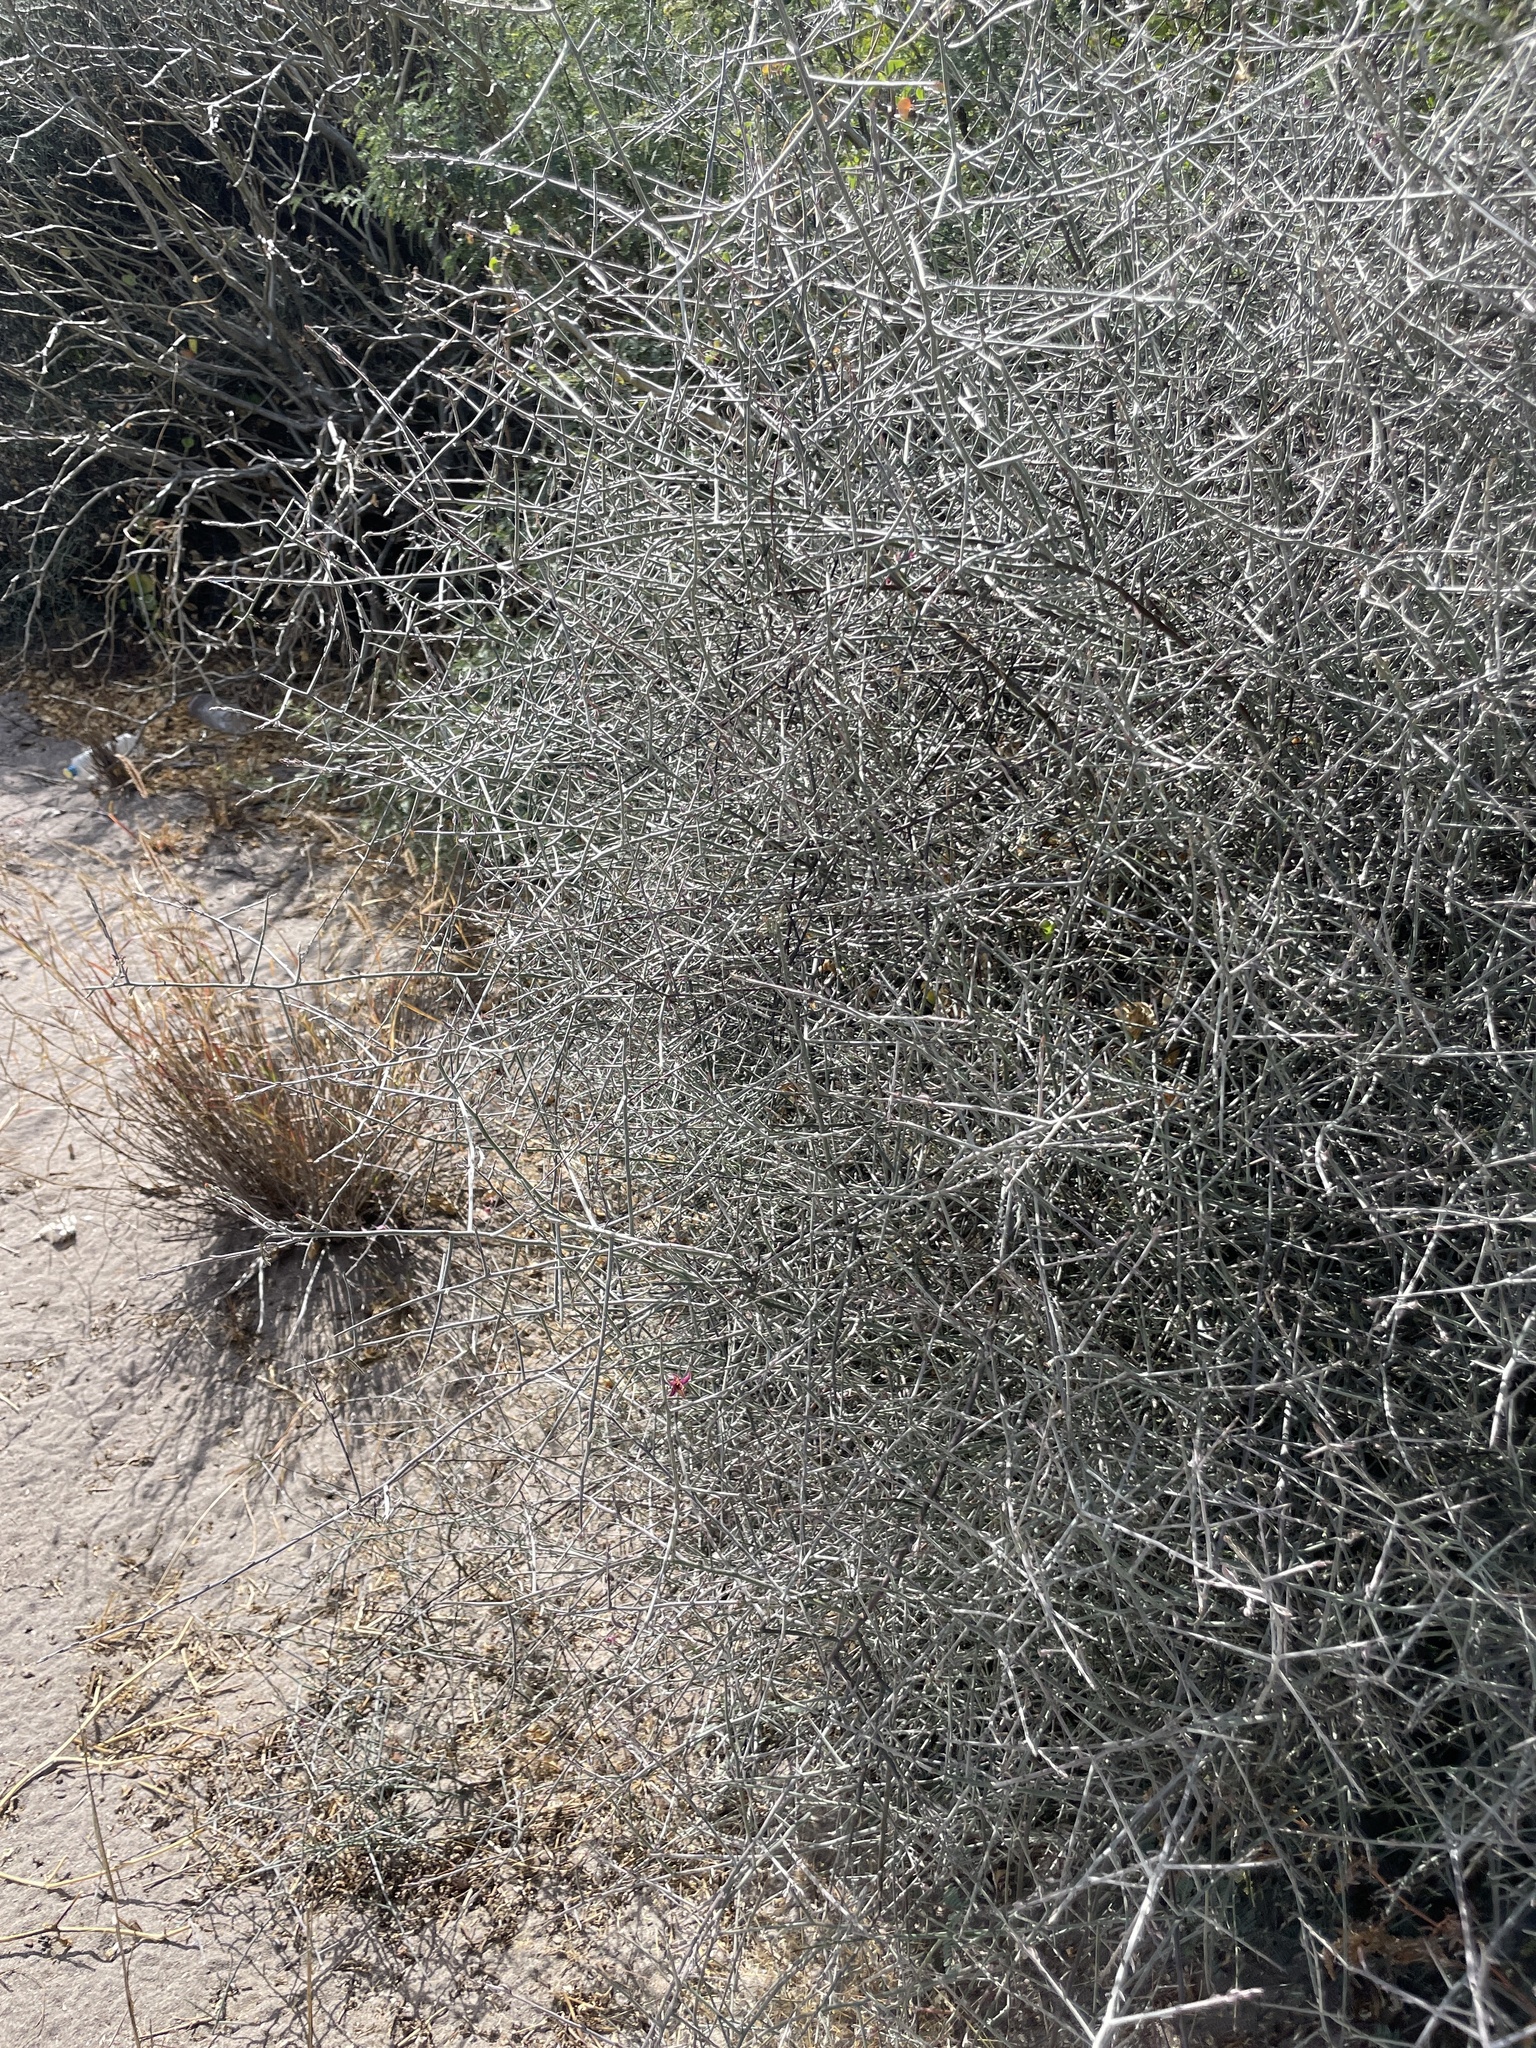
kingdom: Plantae
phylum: Tracheophyta
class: Magnoliopsida
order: Zygophyllales
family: Krameriaceae
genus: Krameria
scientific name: Krameria bicolor
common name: White ratany
